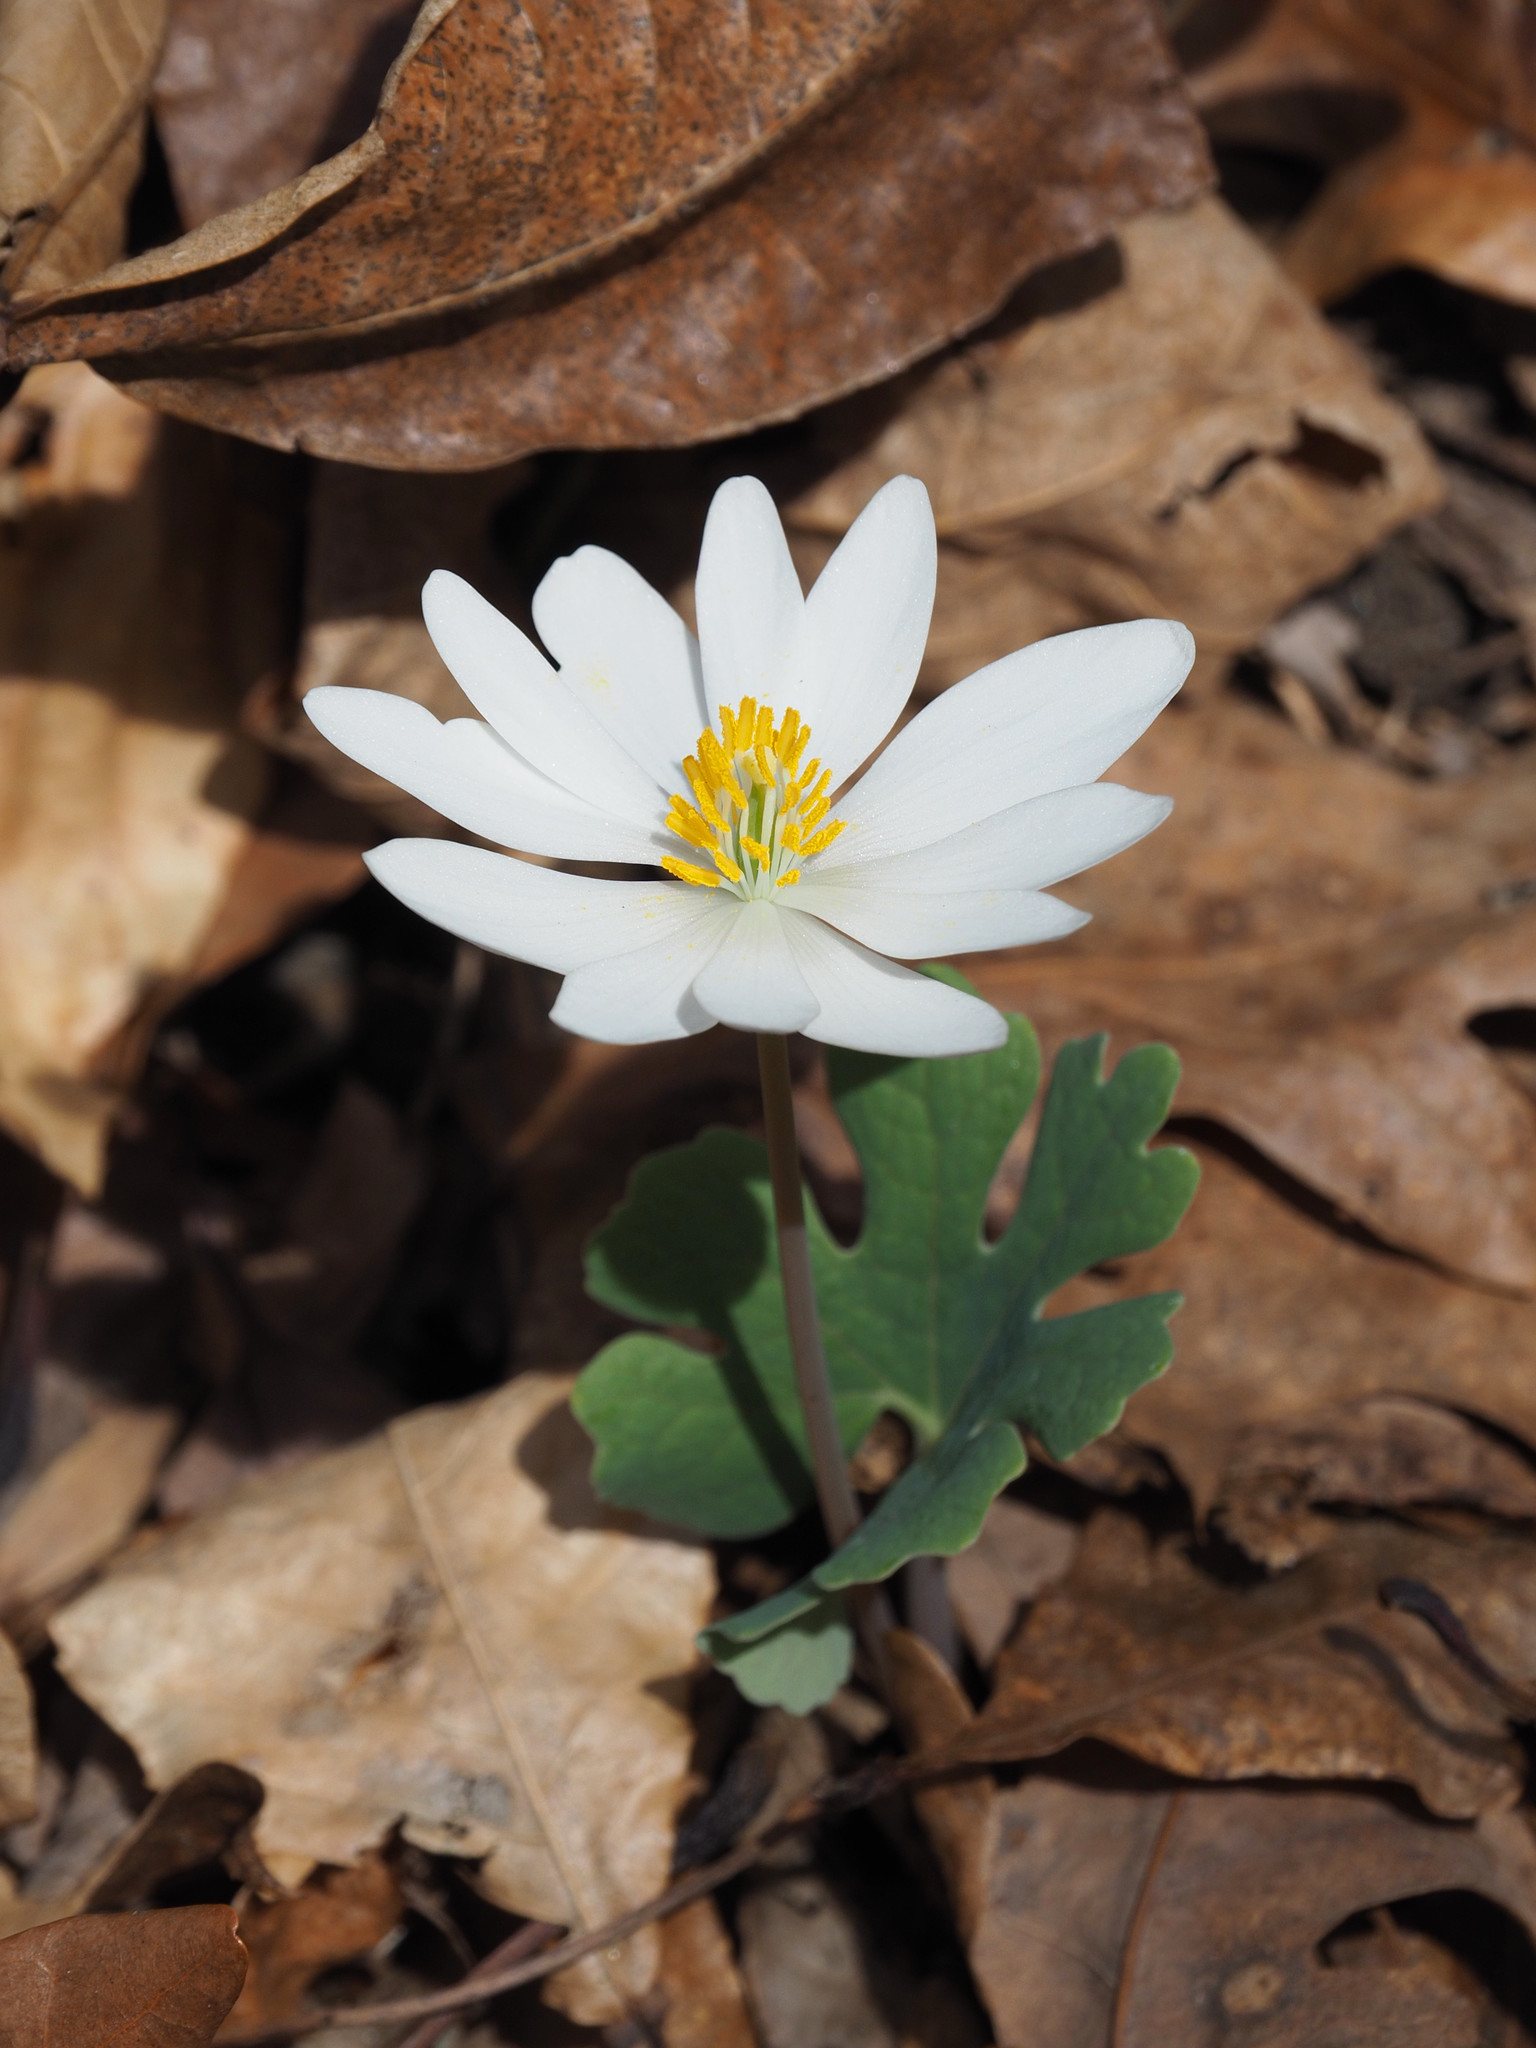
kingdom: Plantae
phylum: Tracheophyta
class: Magnoliopsida
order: Ranunculales
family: Papaveraceae
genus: Sanguinaria
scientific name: Sanguinaria canadensis
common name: Bloodroot
